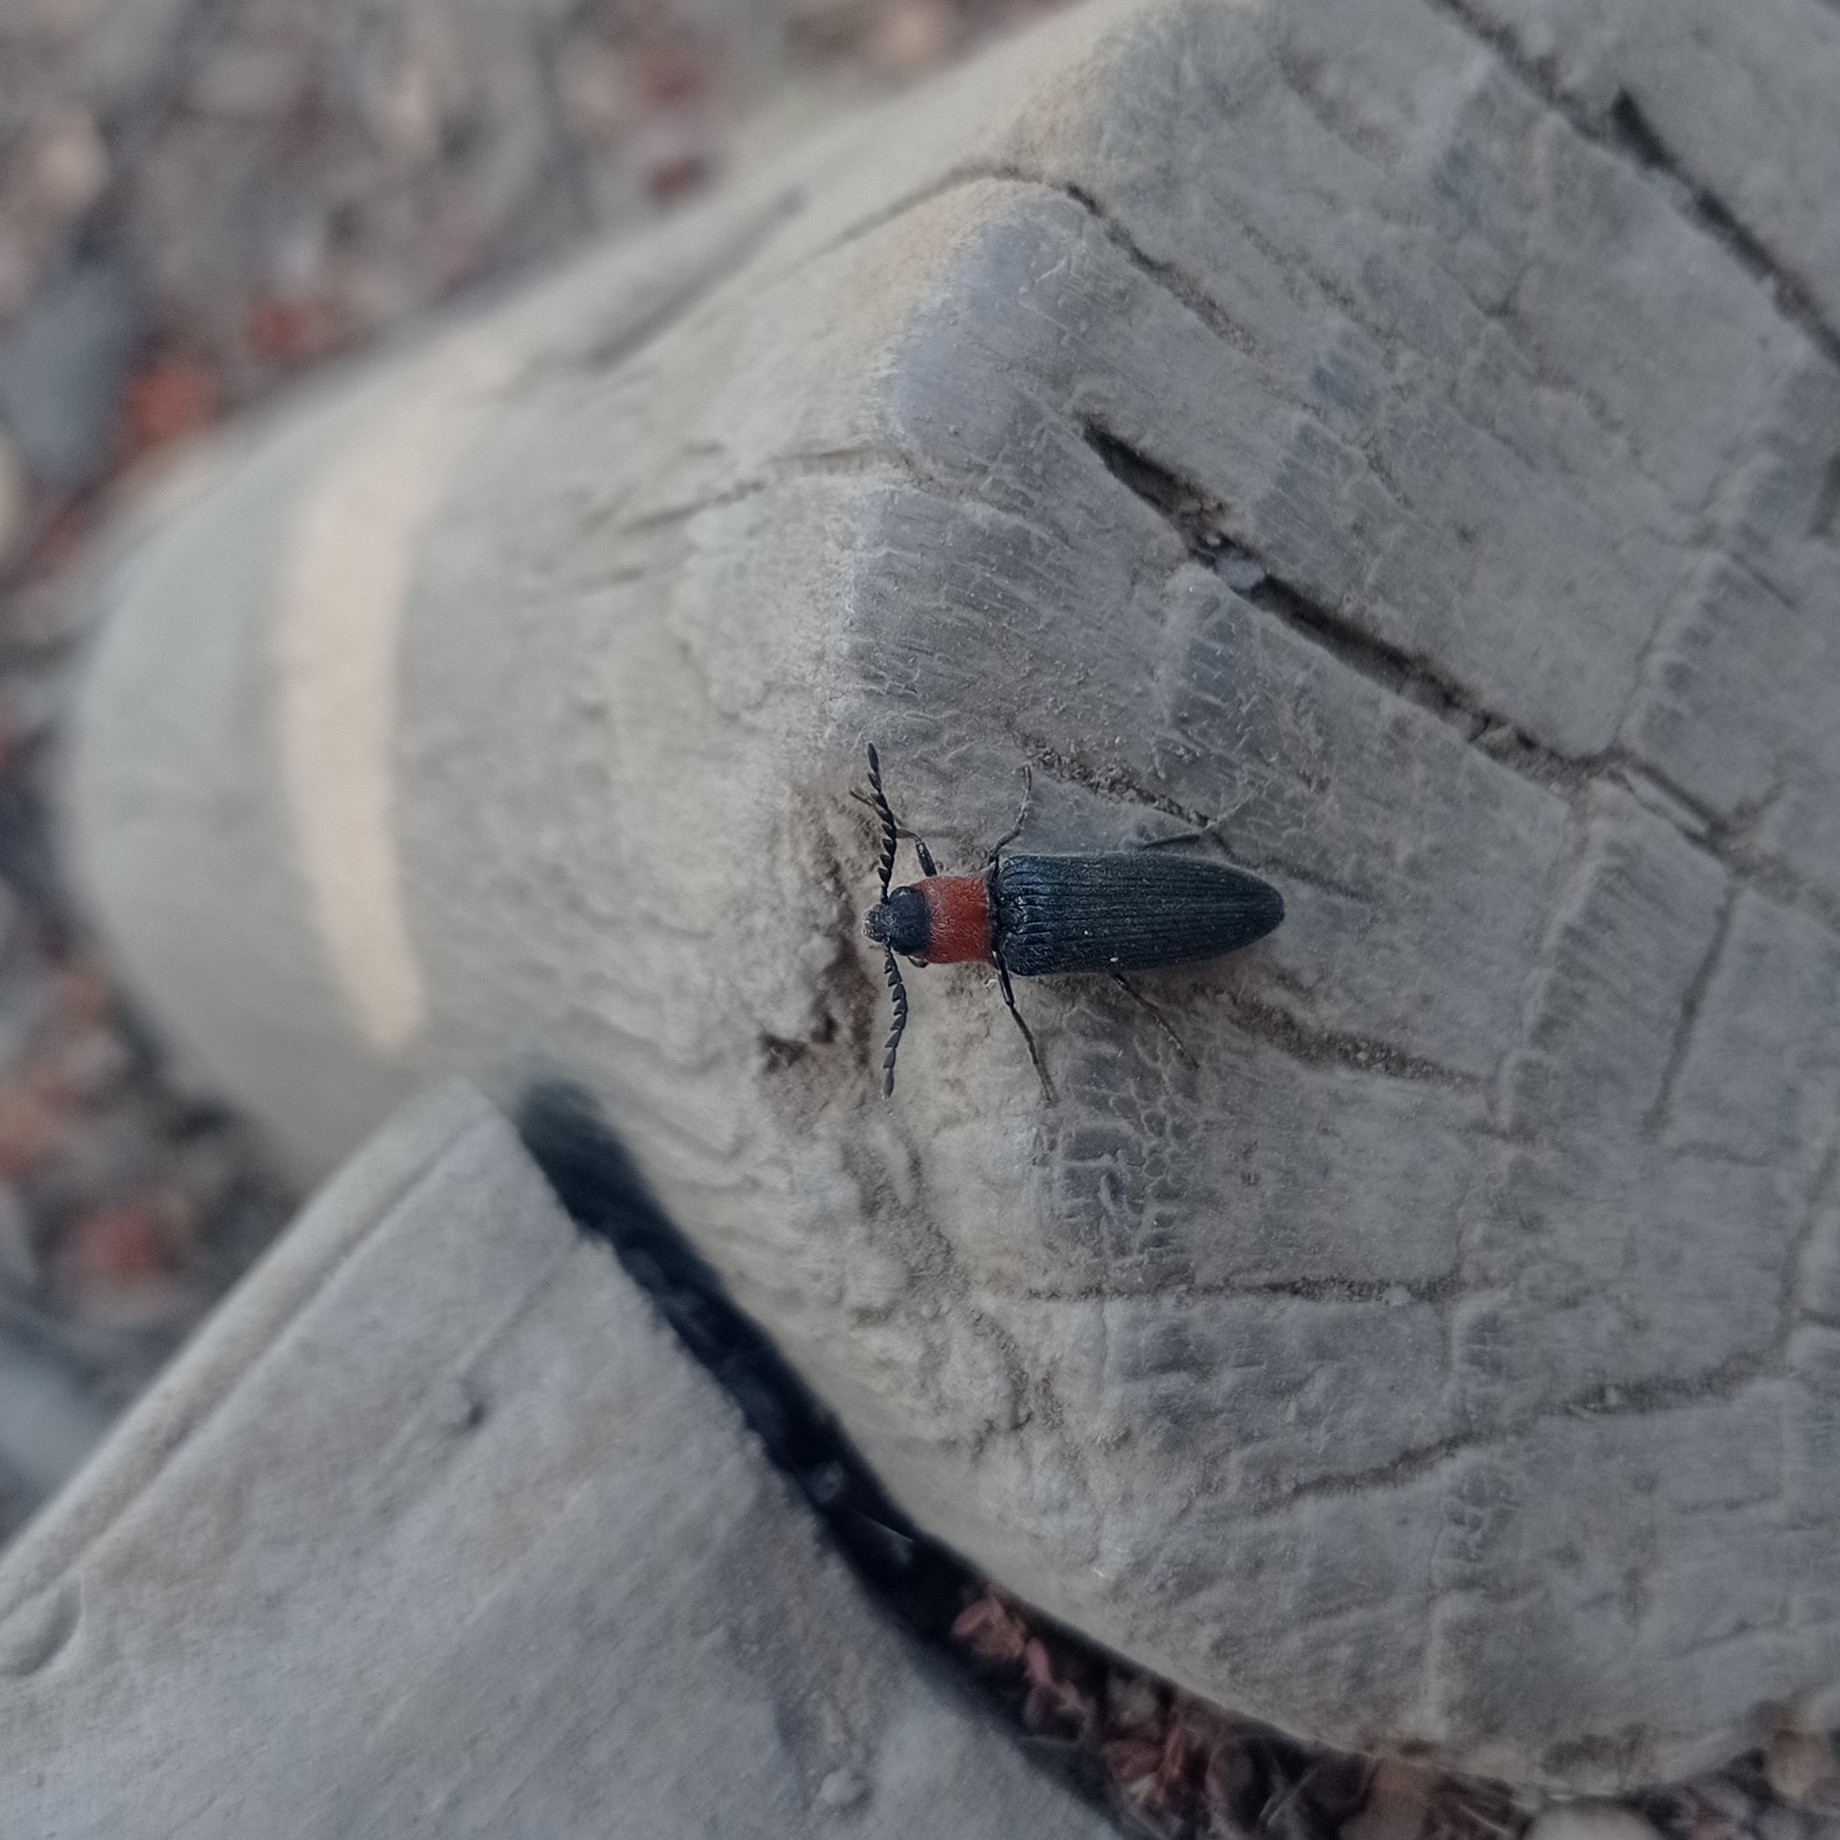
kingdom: Animalia
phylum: Arthropoda
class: Insecta
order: Coleoptera
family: Elateridae
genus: Ovipalpus
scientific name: Ovipalpus
